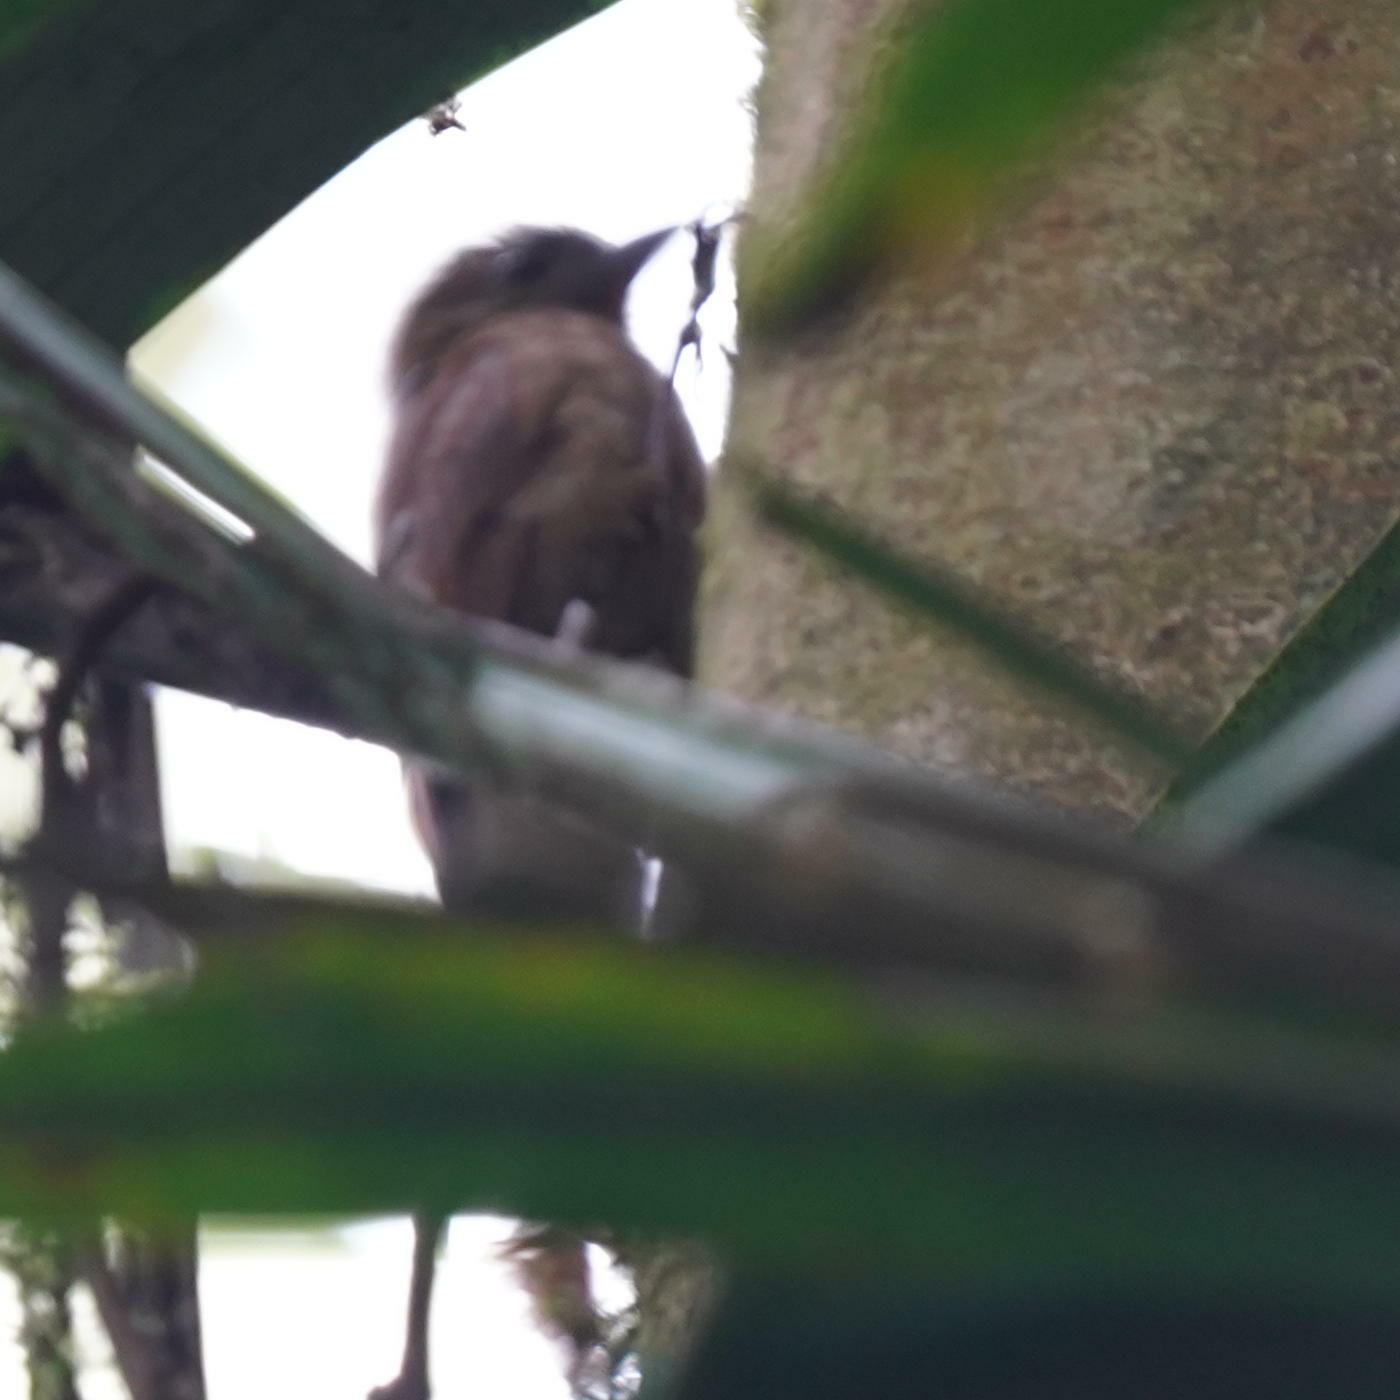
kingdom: Animalia
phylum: Chordata
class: Aves
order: Passeriformes
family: Furnariidae
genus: Glyphorynchus
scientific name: Glyphorynchus spirurus
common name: Wedge-billed woodcreeper
